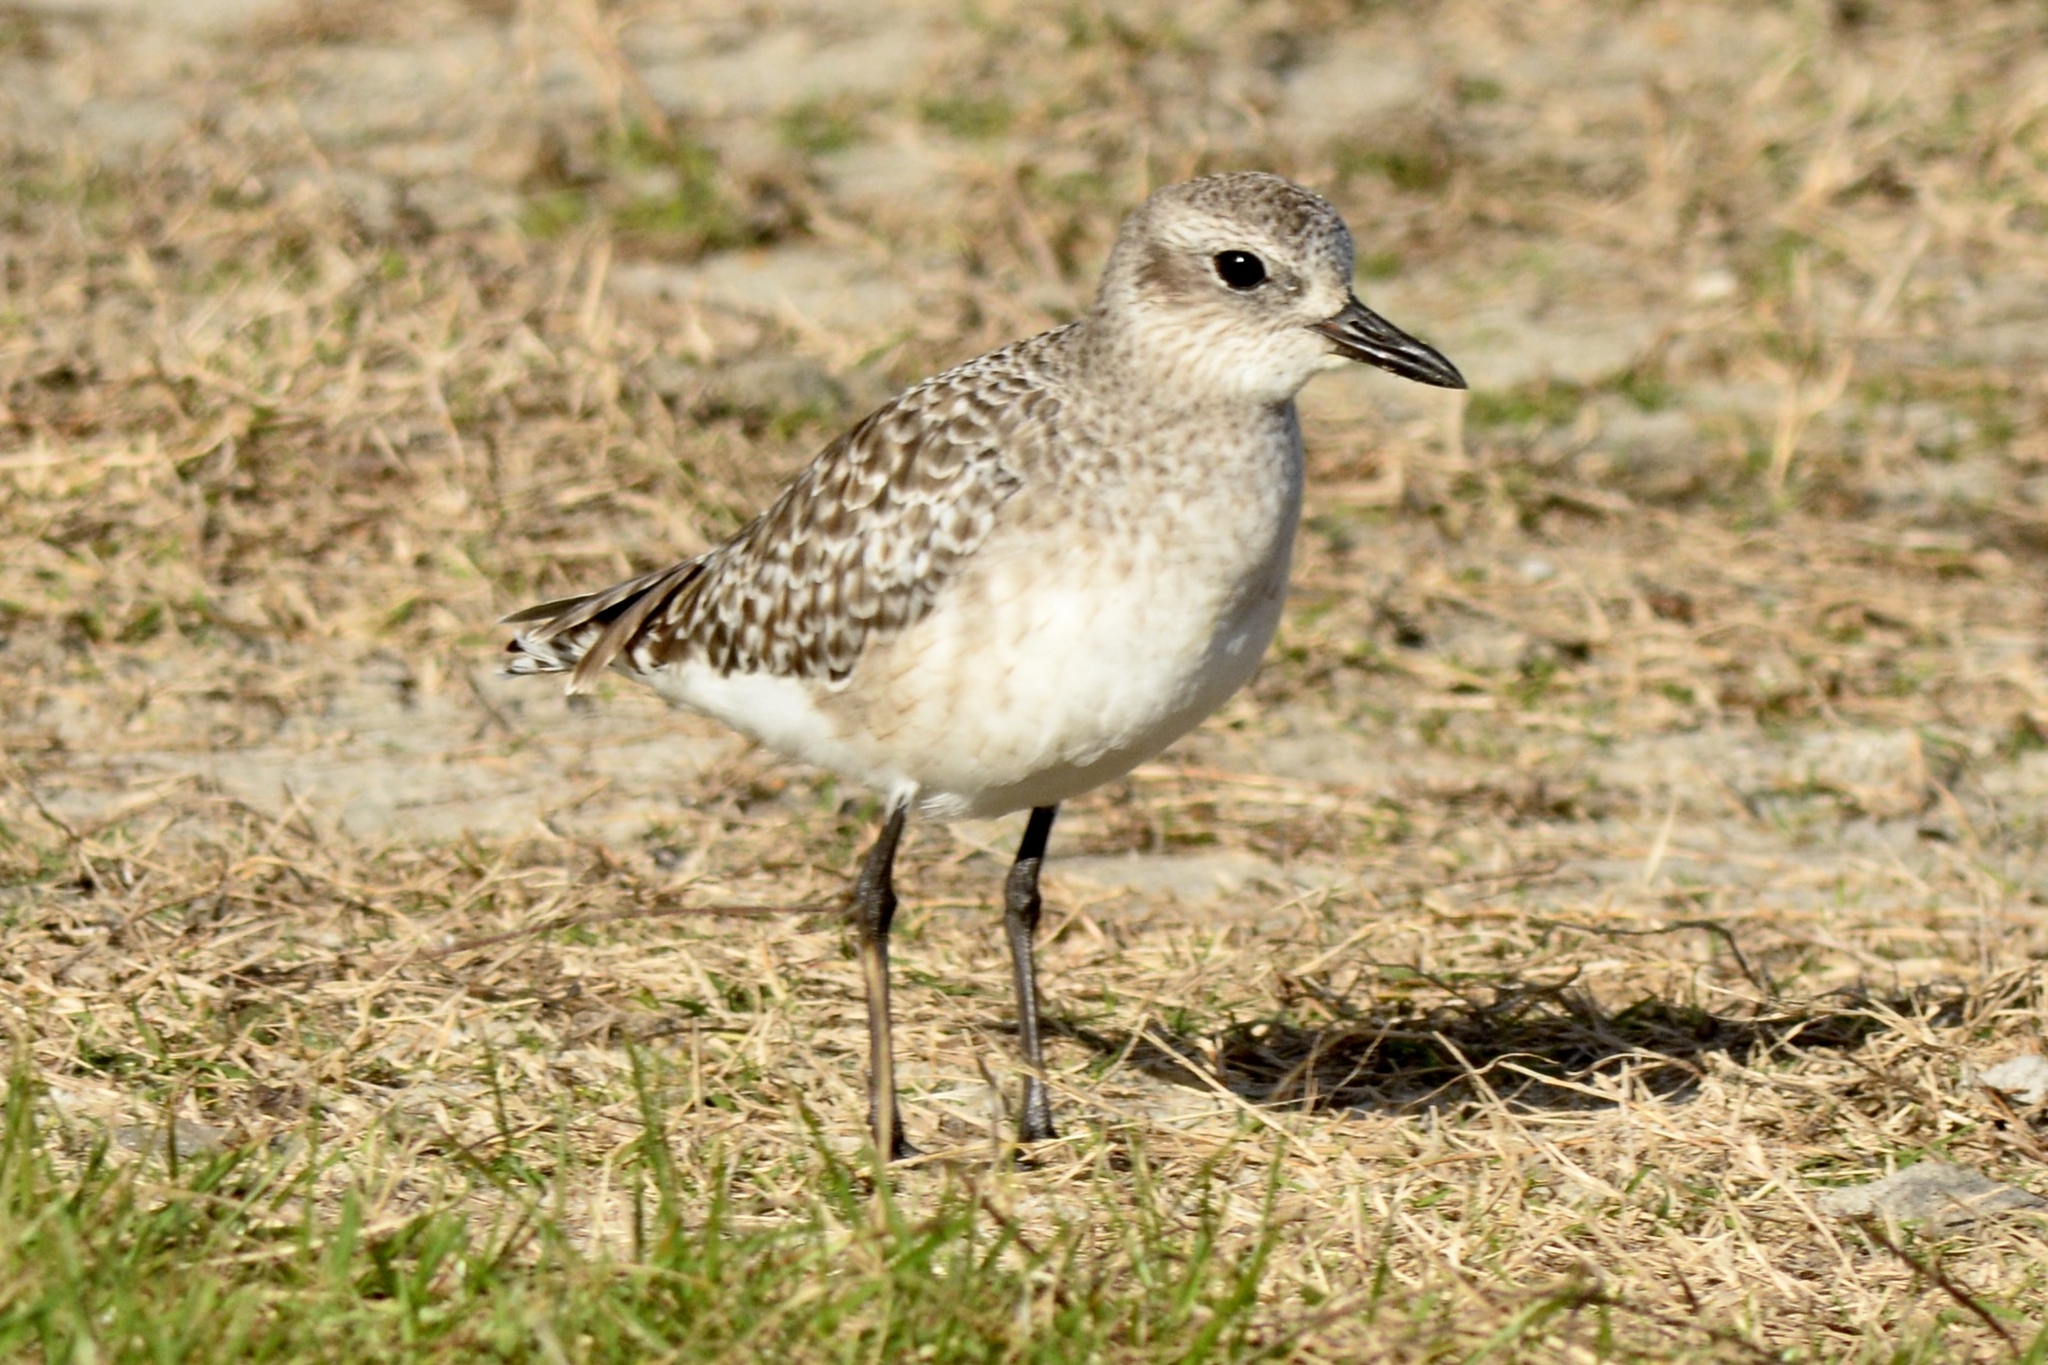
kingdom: Animalia
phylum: Chordata
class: Aves
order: Charadriiformes
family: Charadriidae
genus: Pluvialis
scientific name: Pluvialis squatarola
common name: Grey plover
